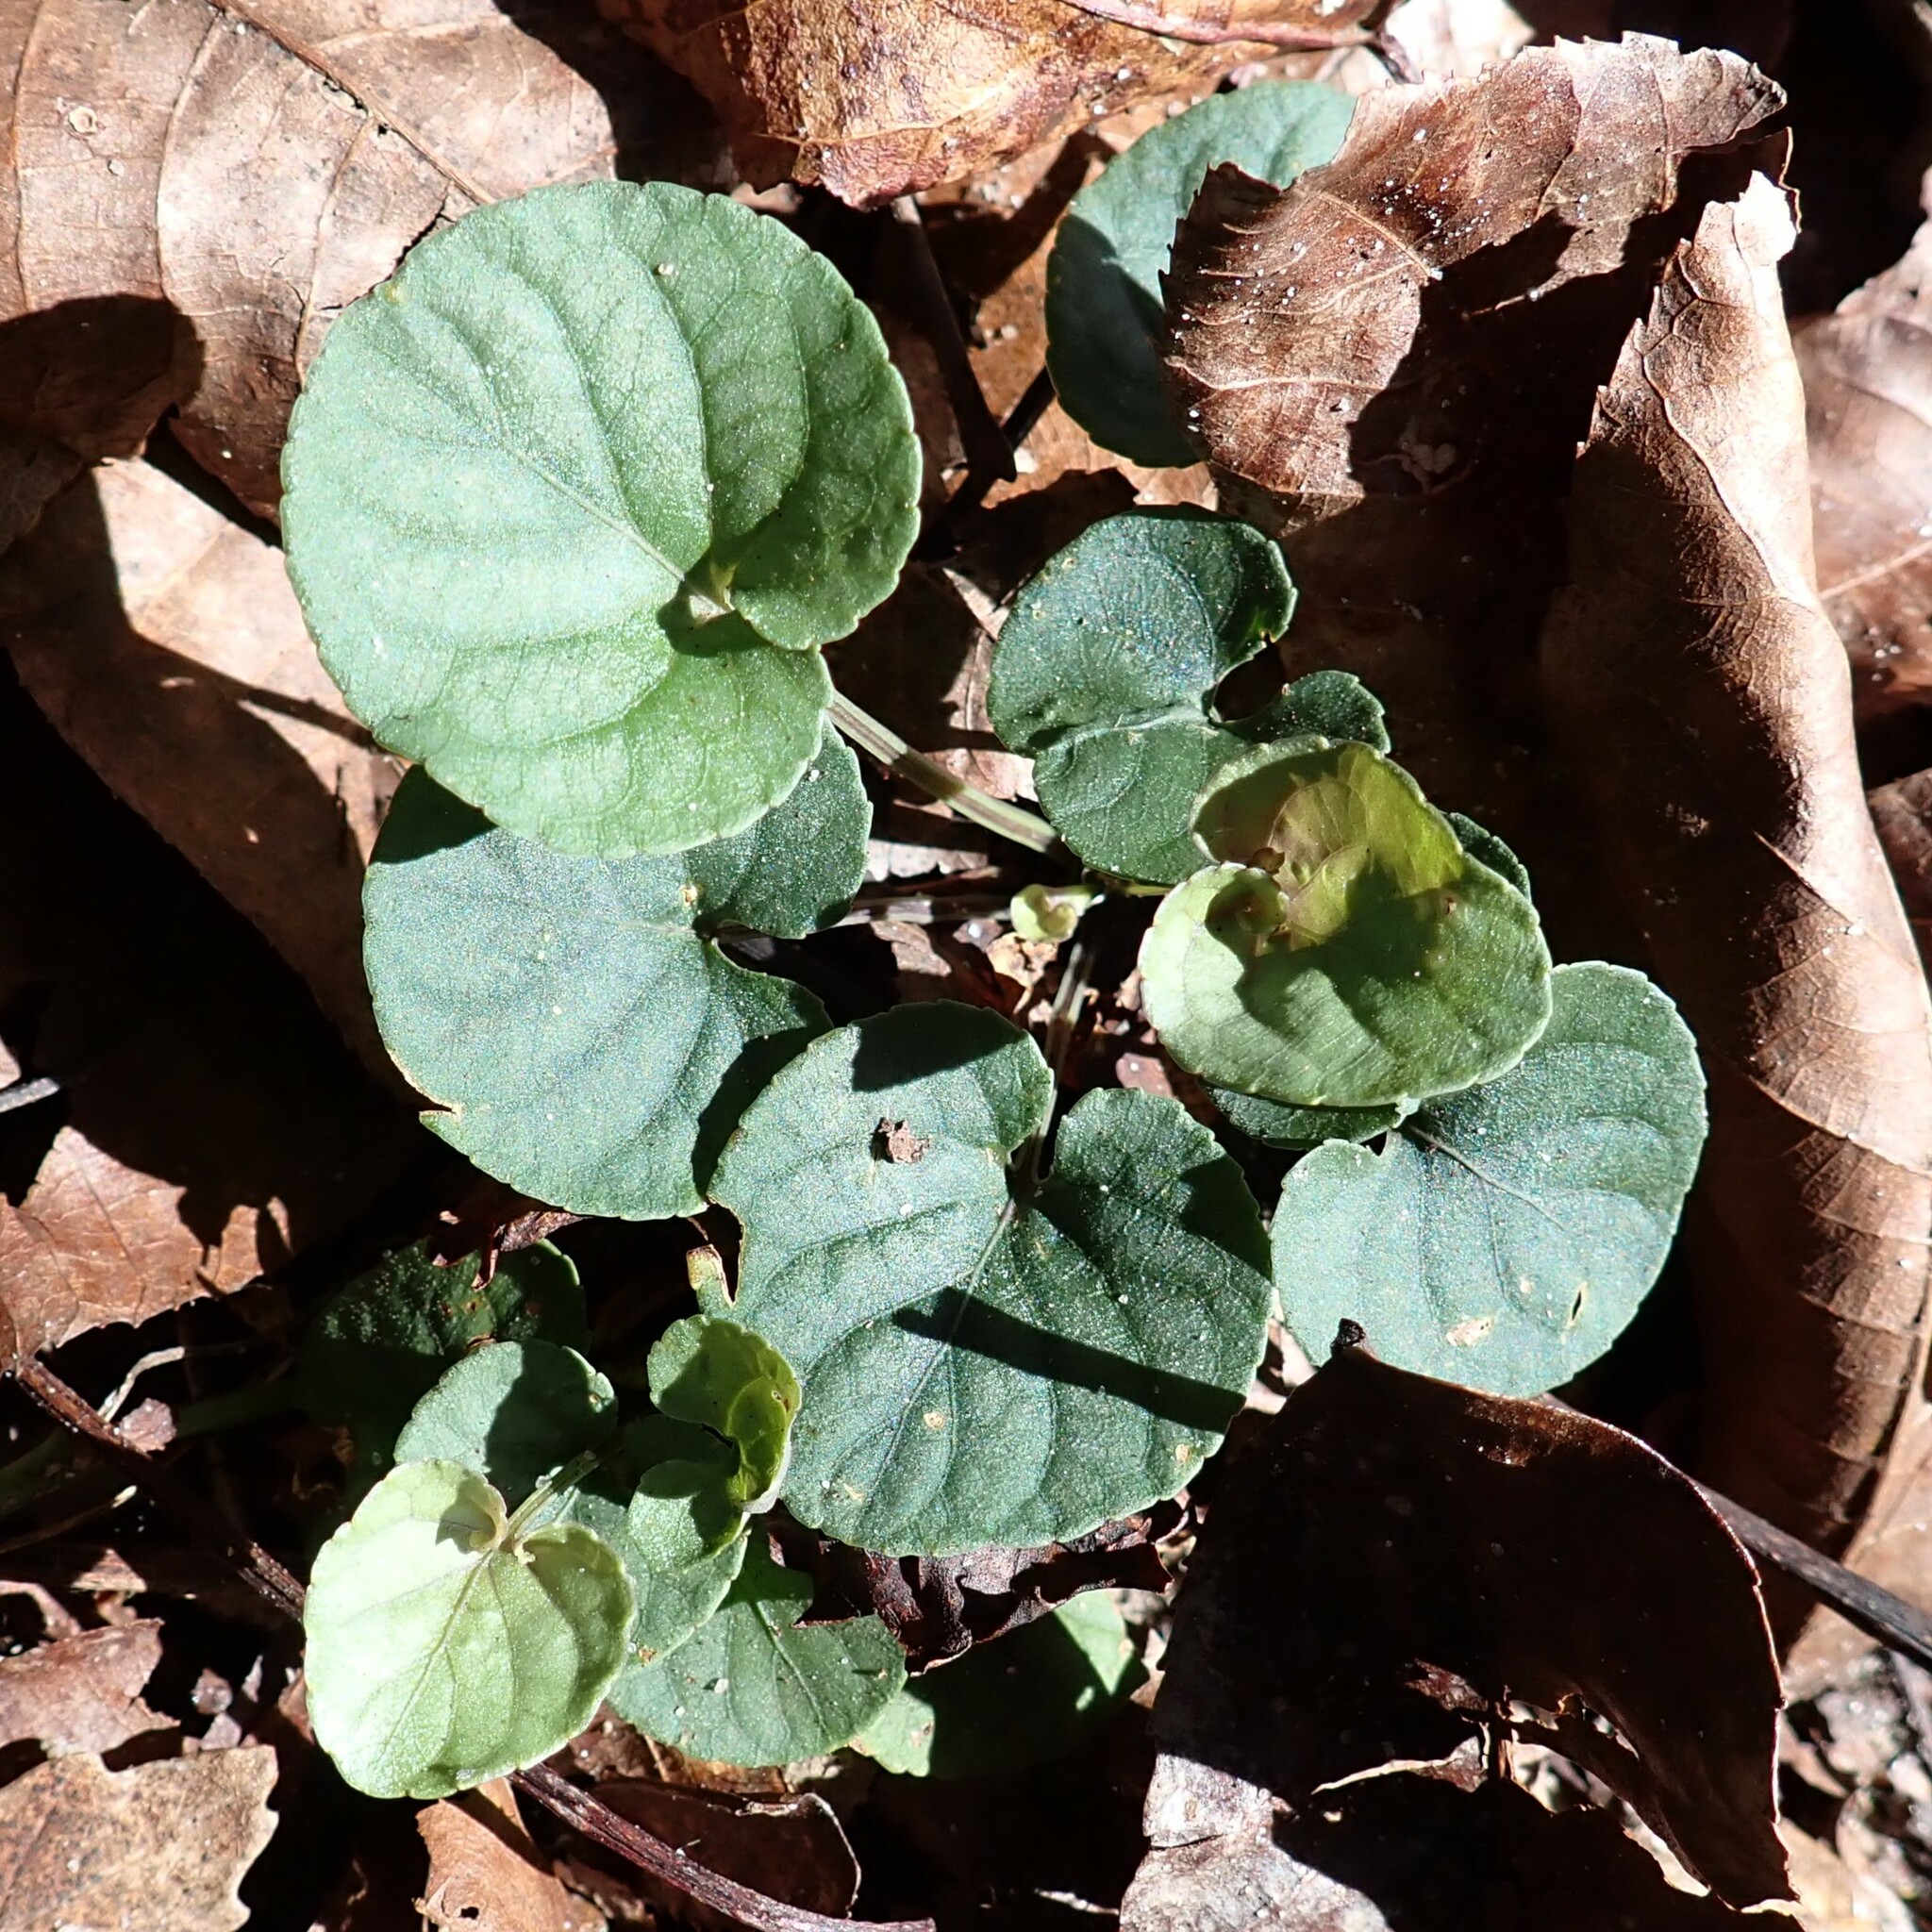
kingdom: Plantae
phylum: Tracheophyta
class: Magnoliopsida
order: Malpighiales
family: Violaceae
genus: Viola
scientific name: Viola walteri
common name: Prostrate southern violet
